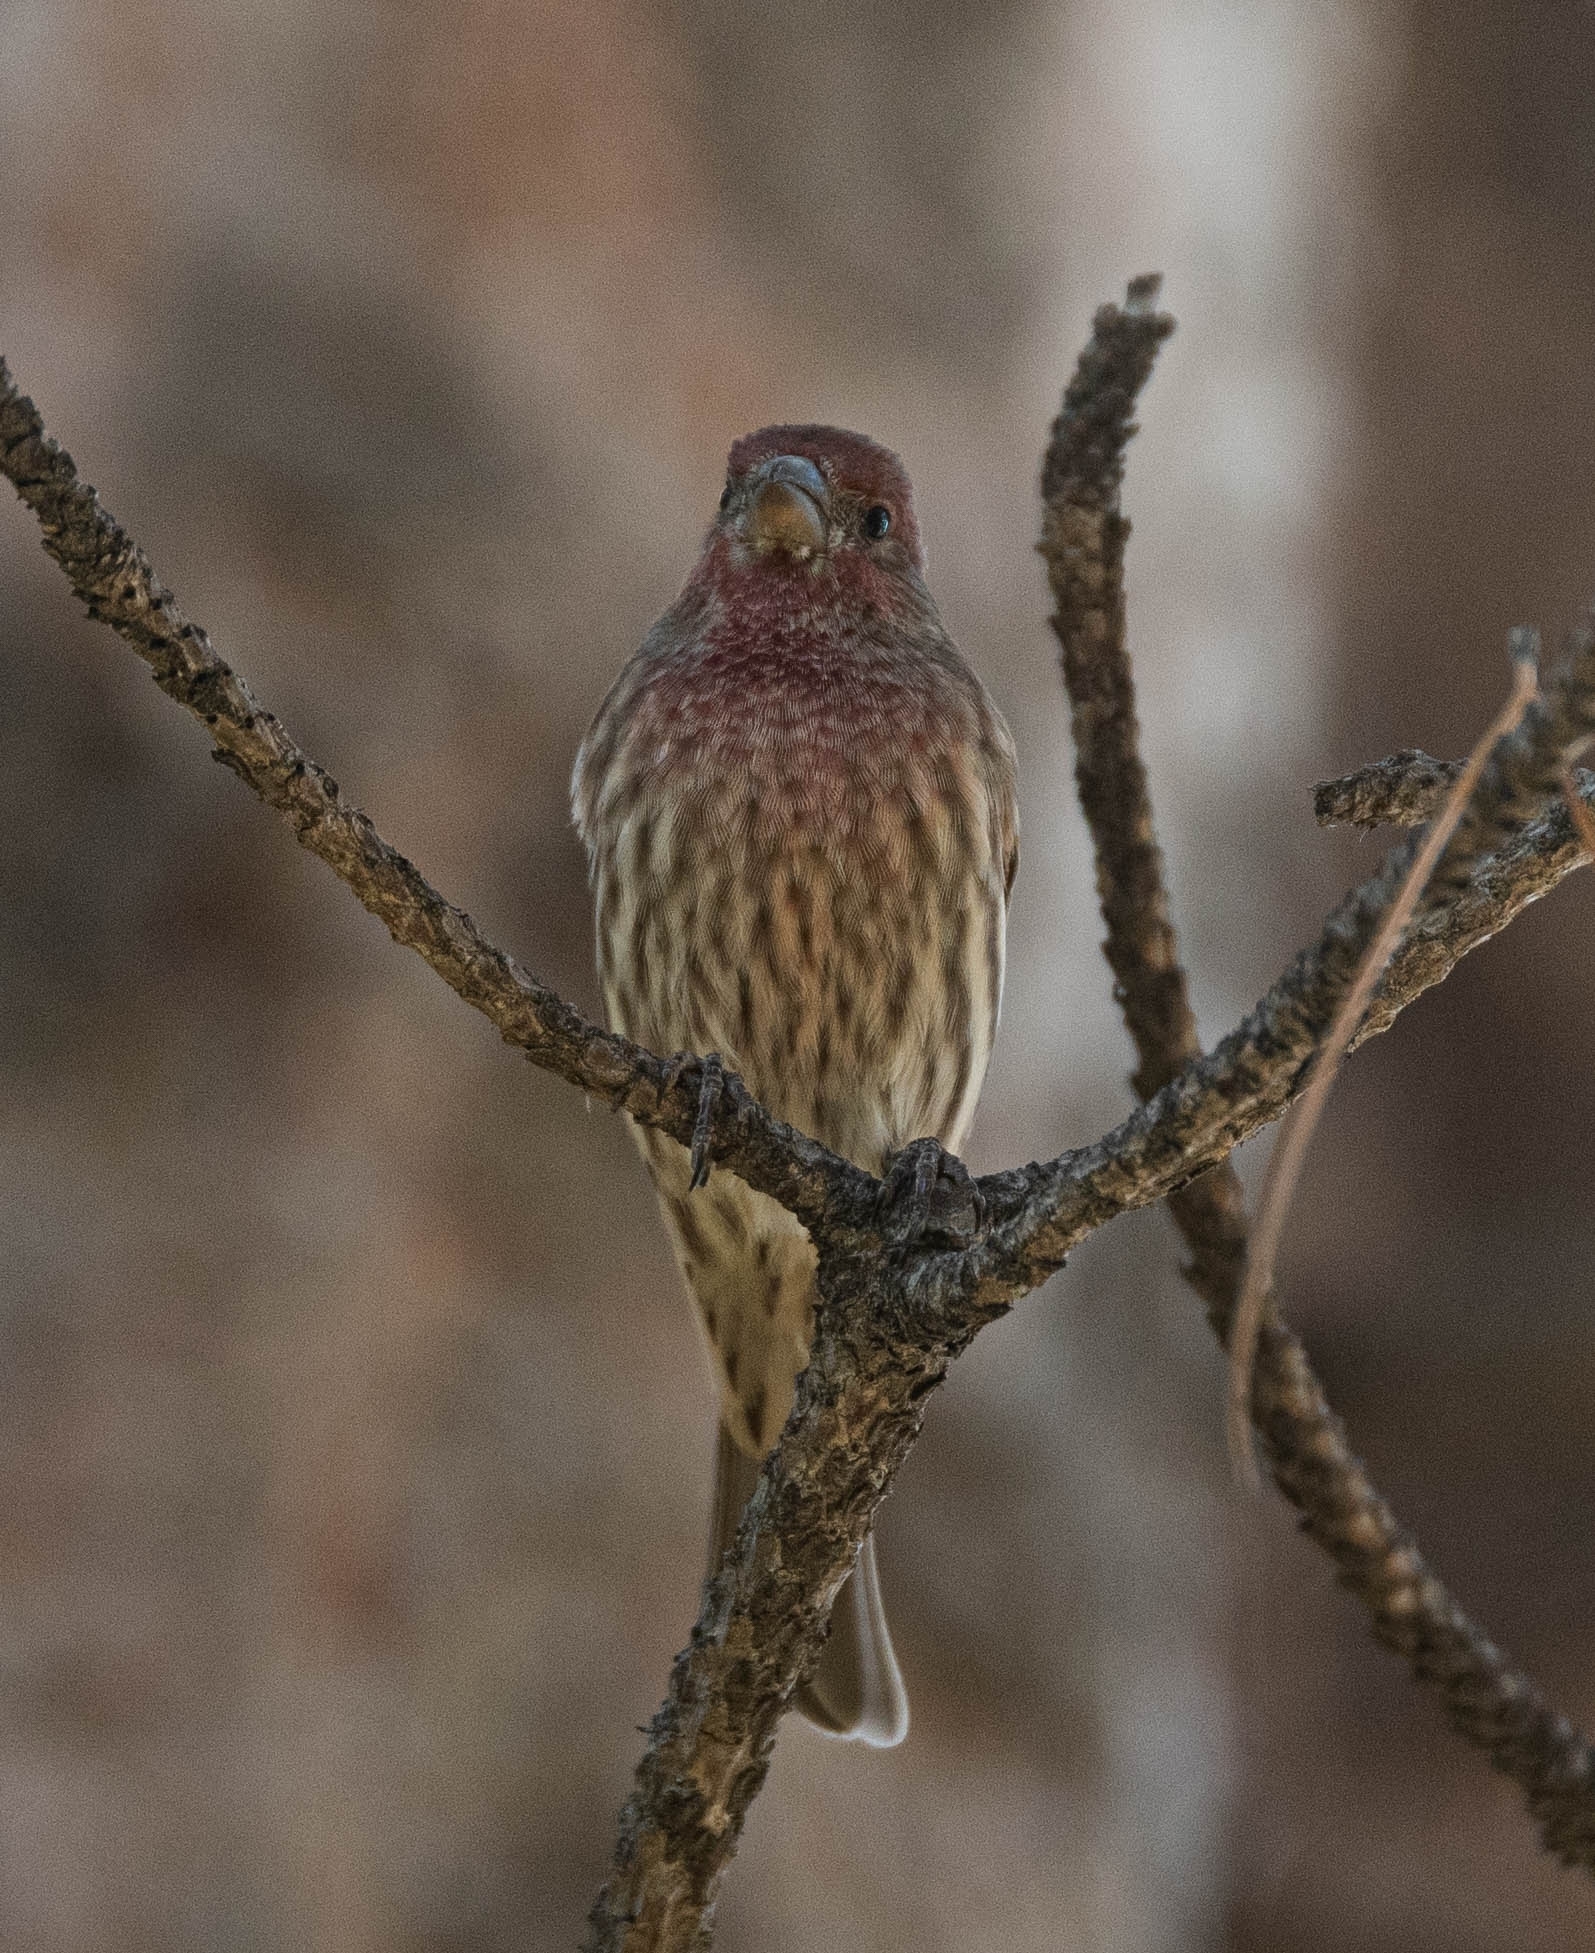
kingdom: Animalia
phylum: Chordata
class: Aves
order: Passeriformes
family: Fringillidae
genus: Haemorhous
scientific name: Haemorhous mexicanus
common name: House finch
